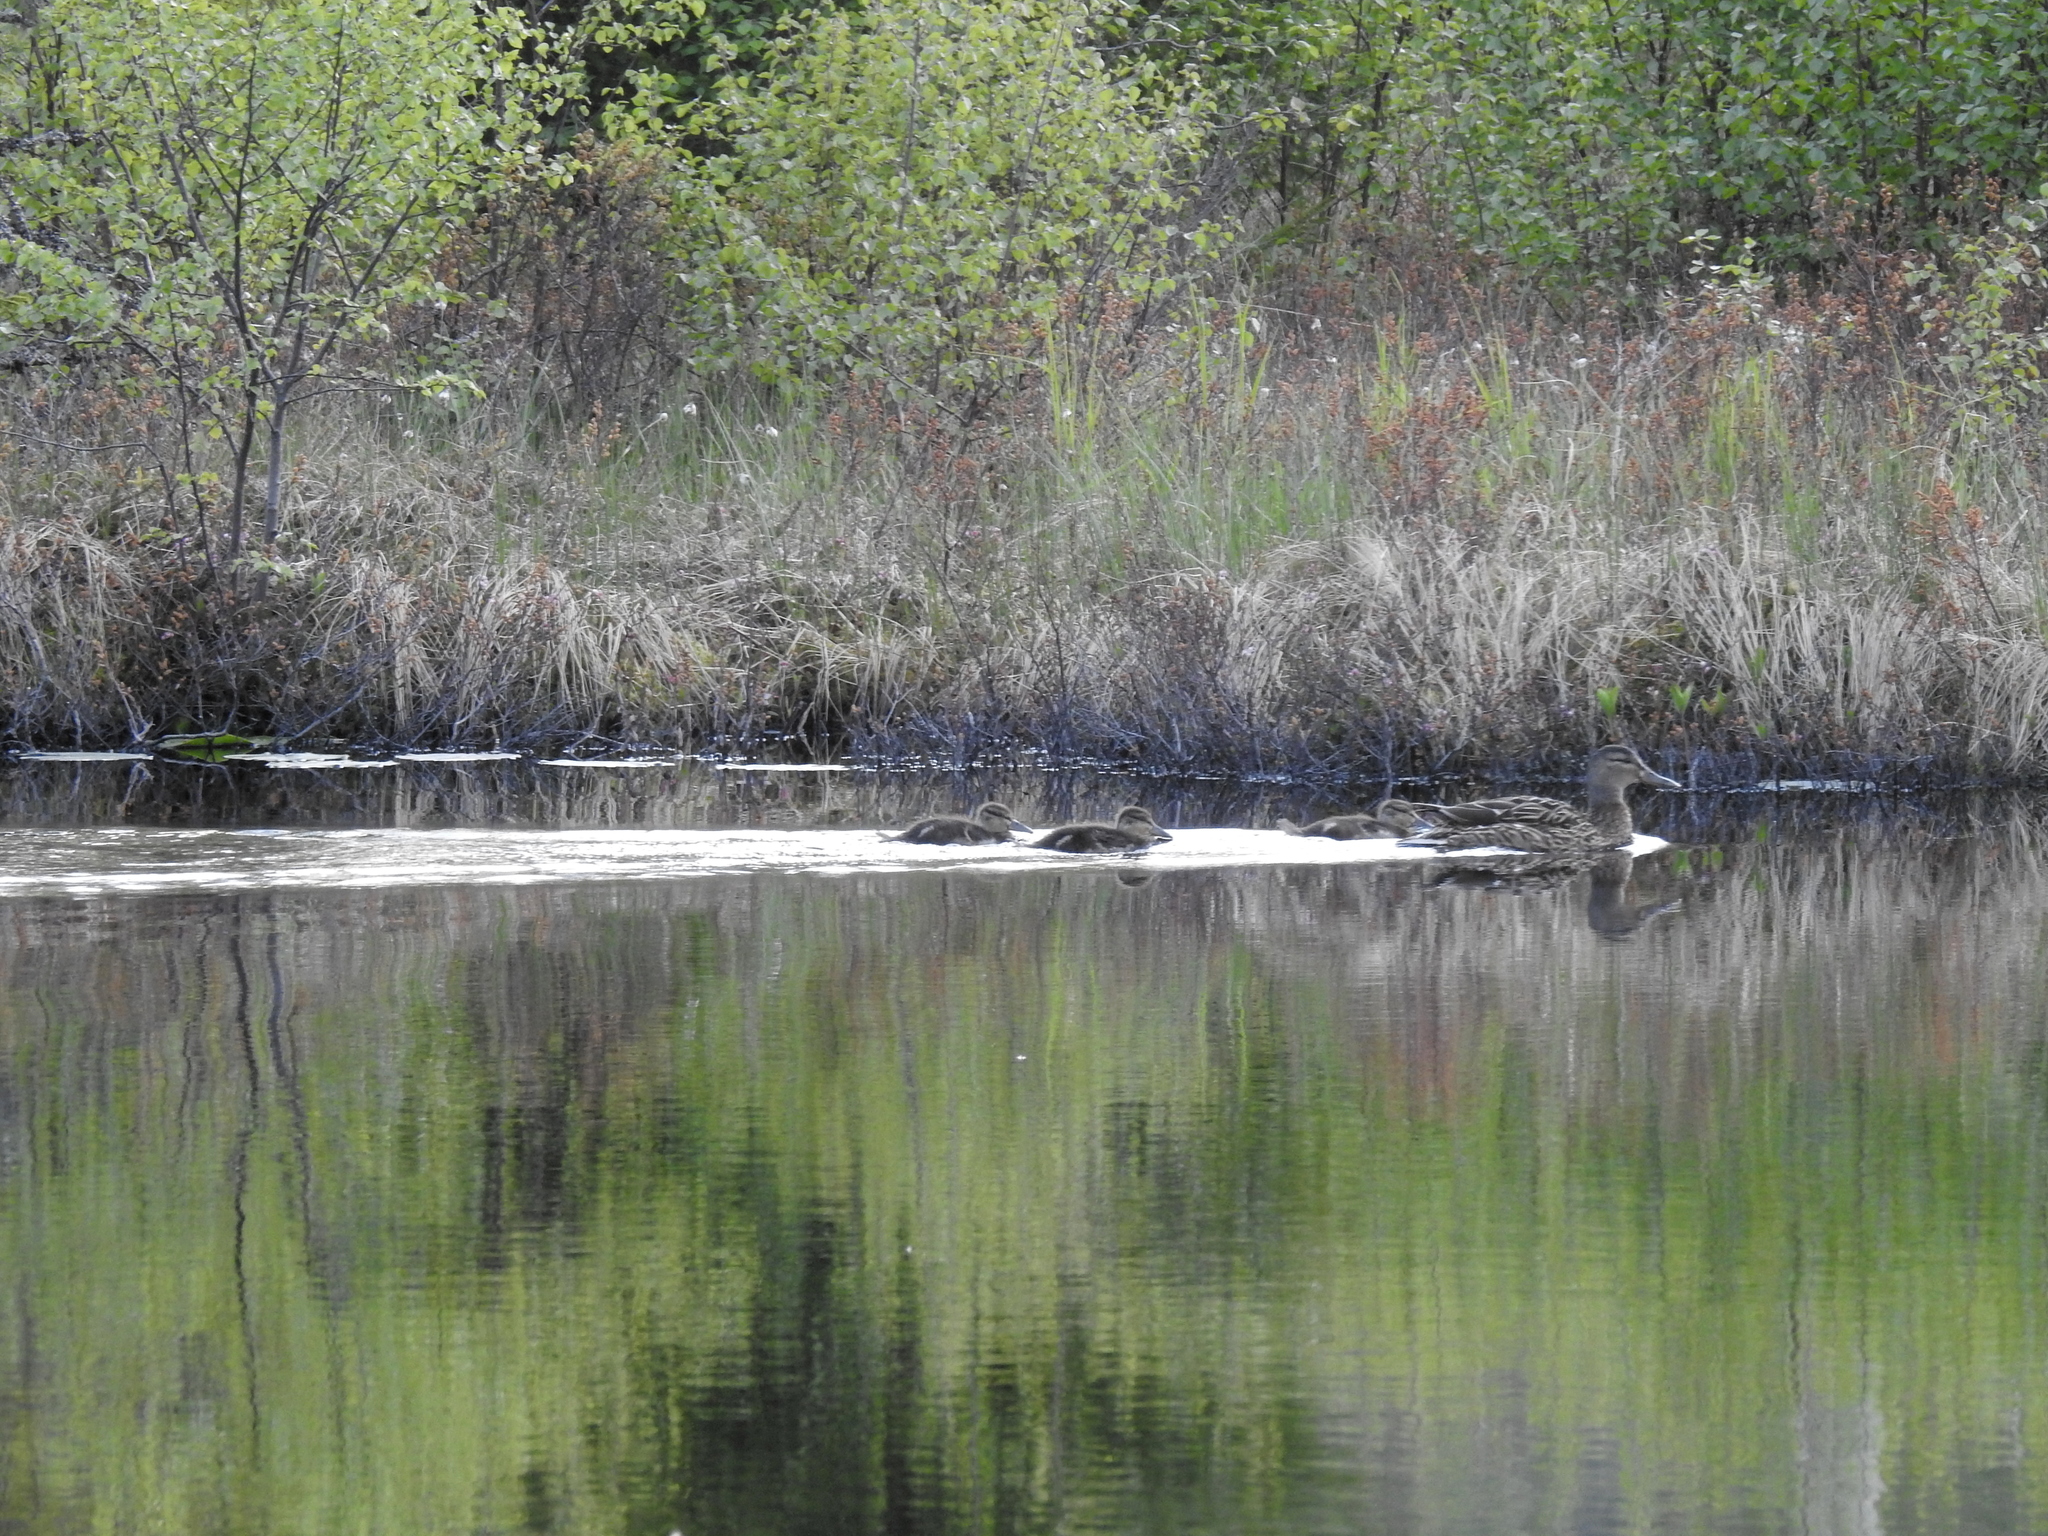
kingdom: Animalia
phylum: Chordata
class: Aves
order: Anseriformes
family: Anatidae
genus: Anas
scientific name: Anas platyrhynchos
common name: Mallard
